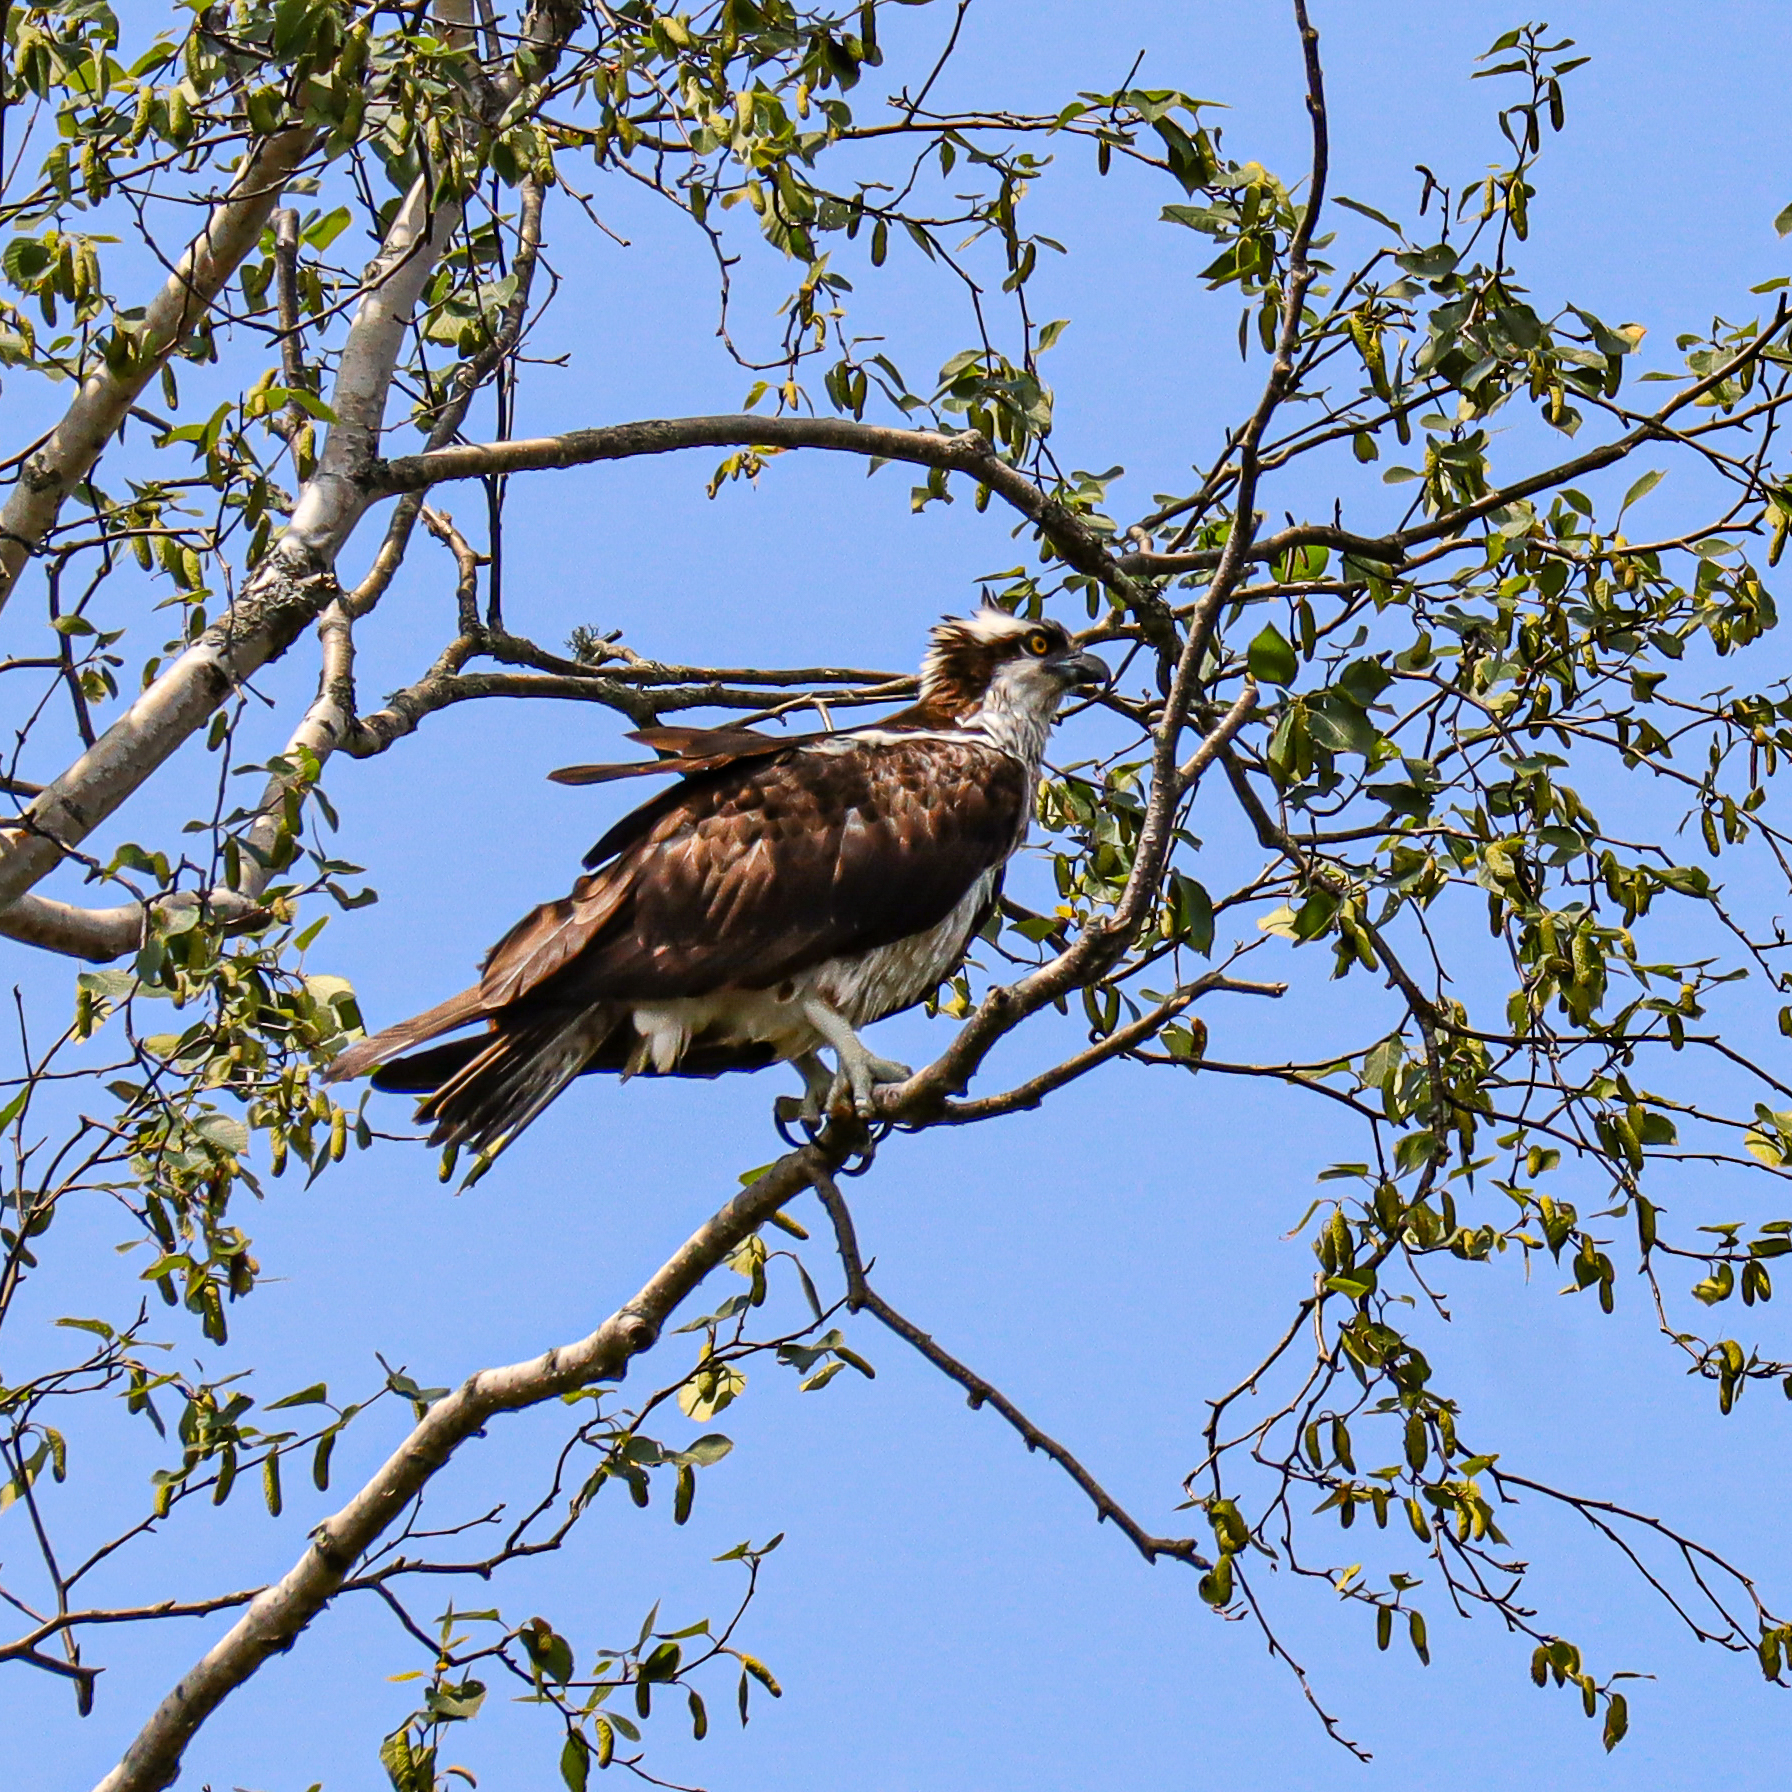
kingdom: Animalia
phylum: Chordata
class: Aves
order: Accipitriformes
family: Pandionidae
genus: Pandion
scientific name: Pandion haliaetus
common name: Osprey
